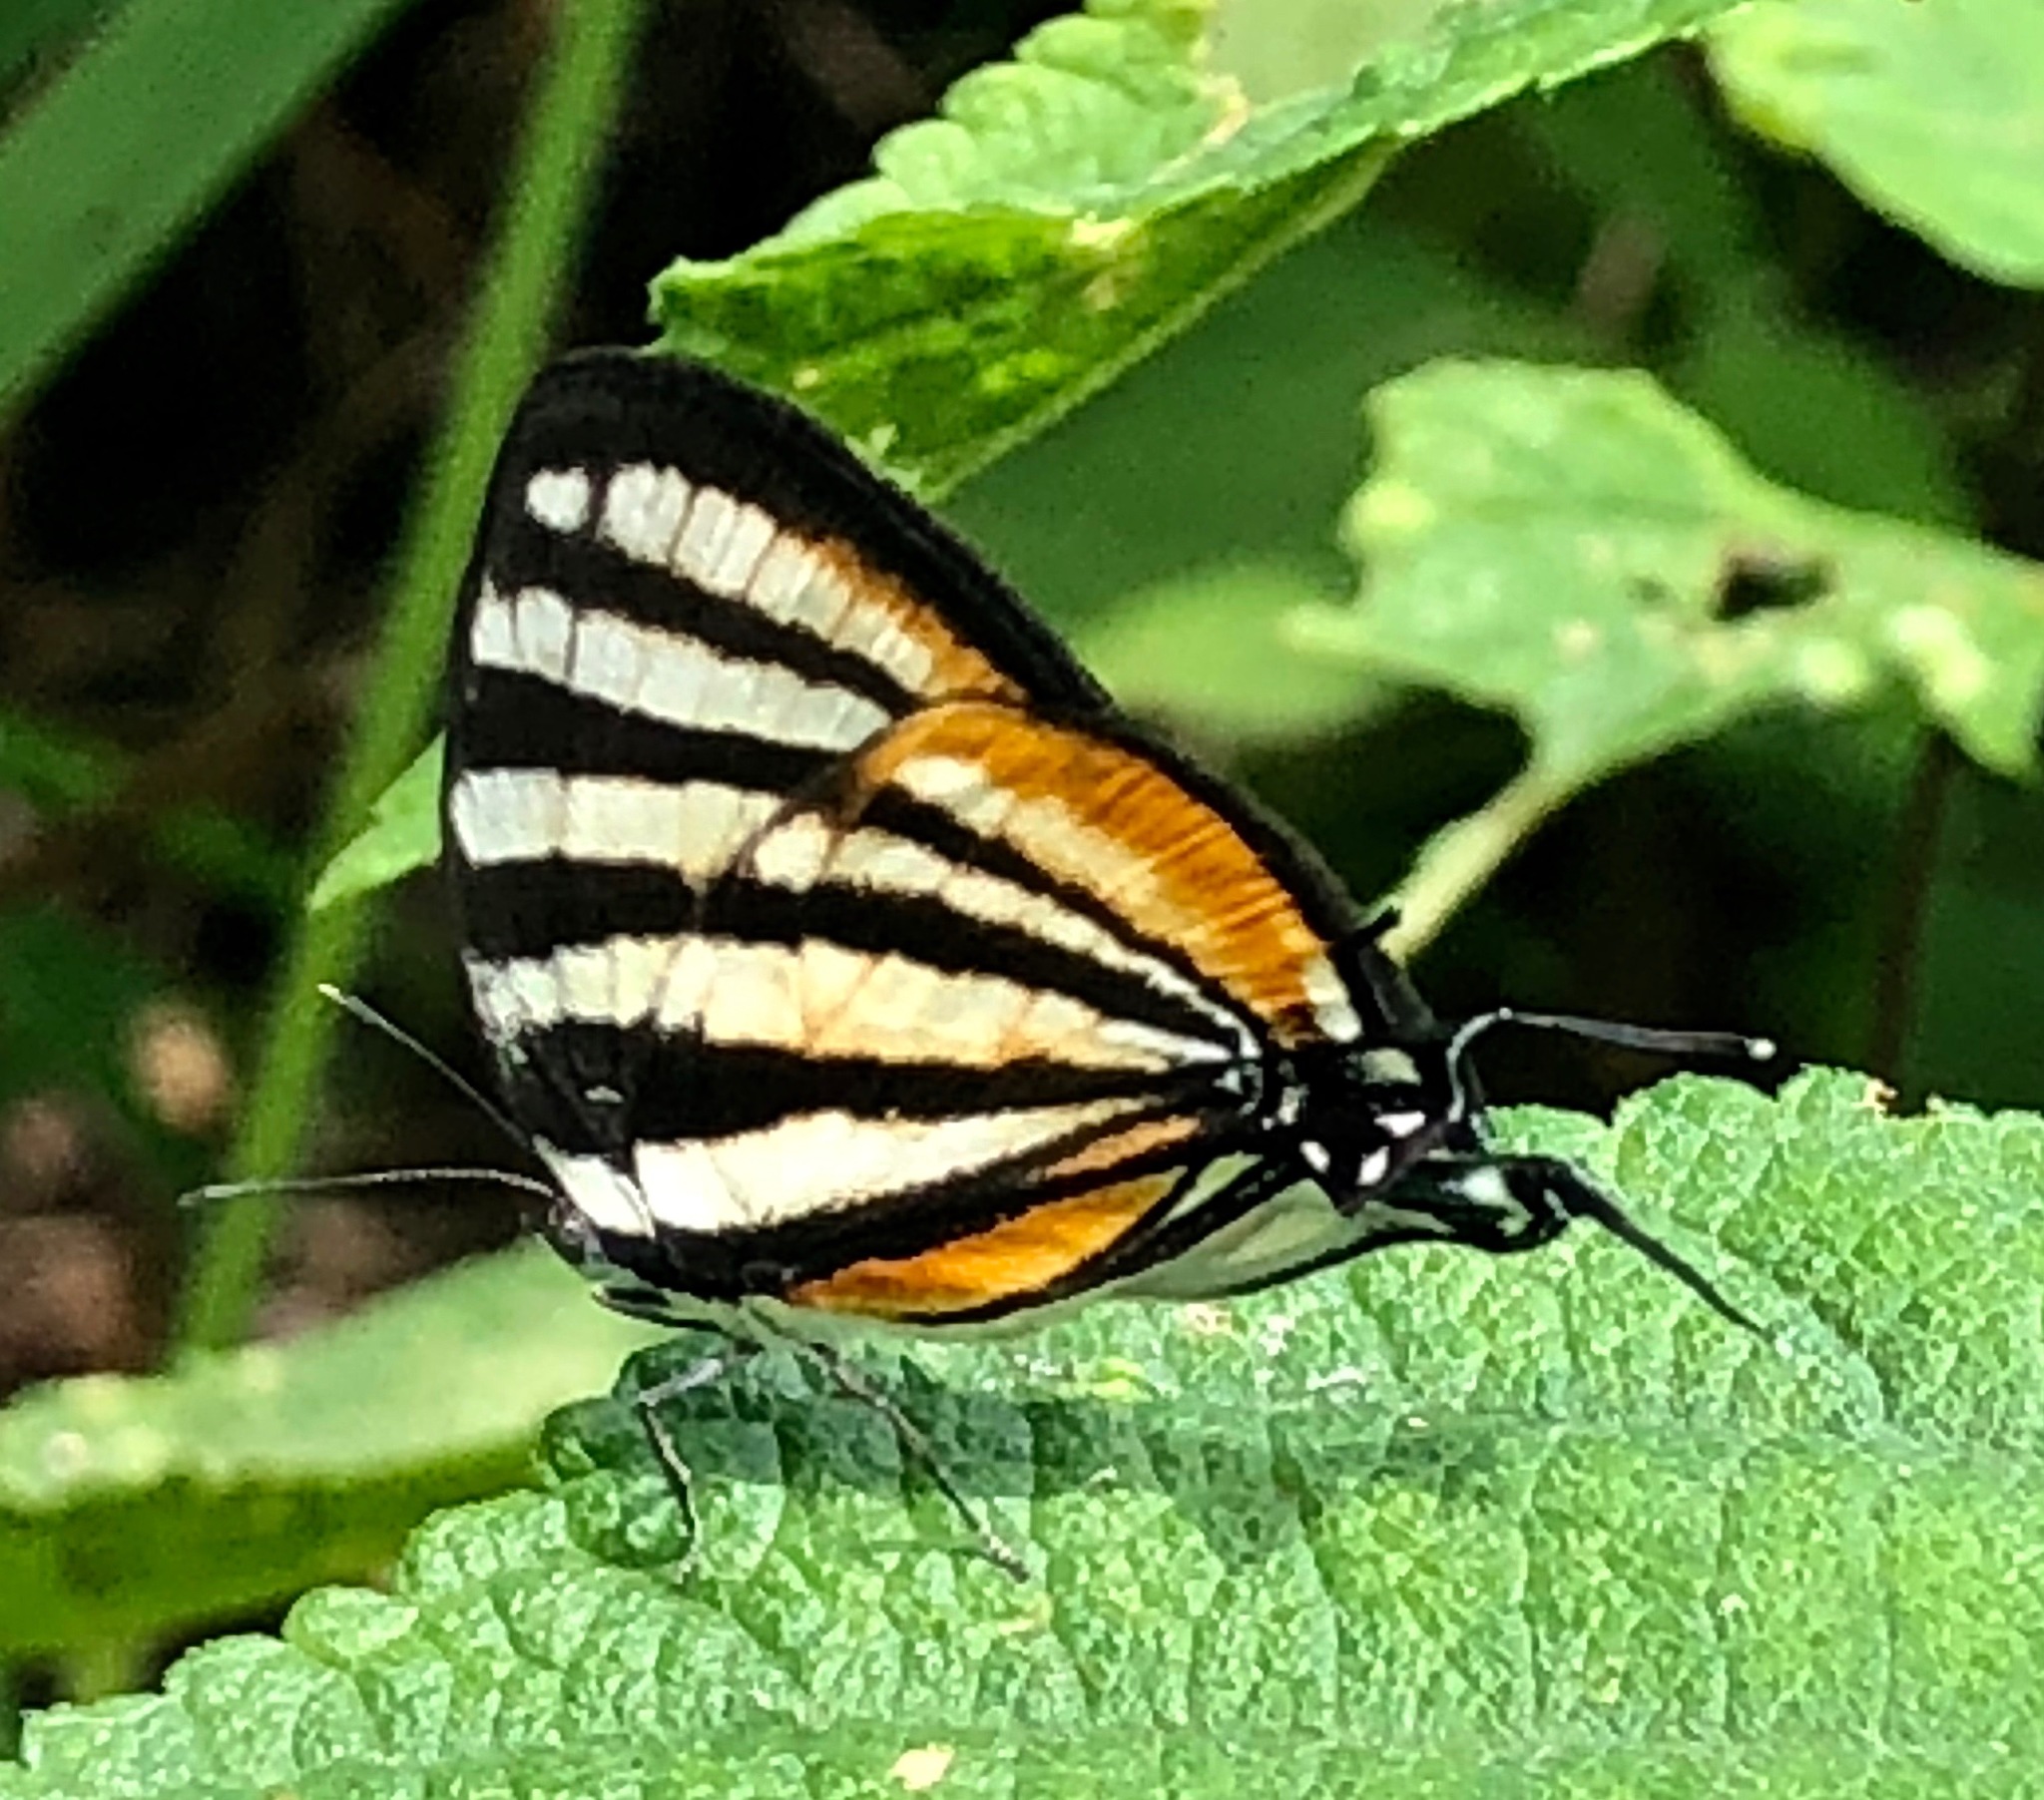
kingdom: Animalia
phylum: Arthropoda
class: Insecta
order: Lepidoptera
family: Lycaenidae
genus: Arawacus
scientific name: Arawacus lincoides
